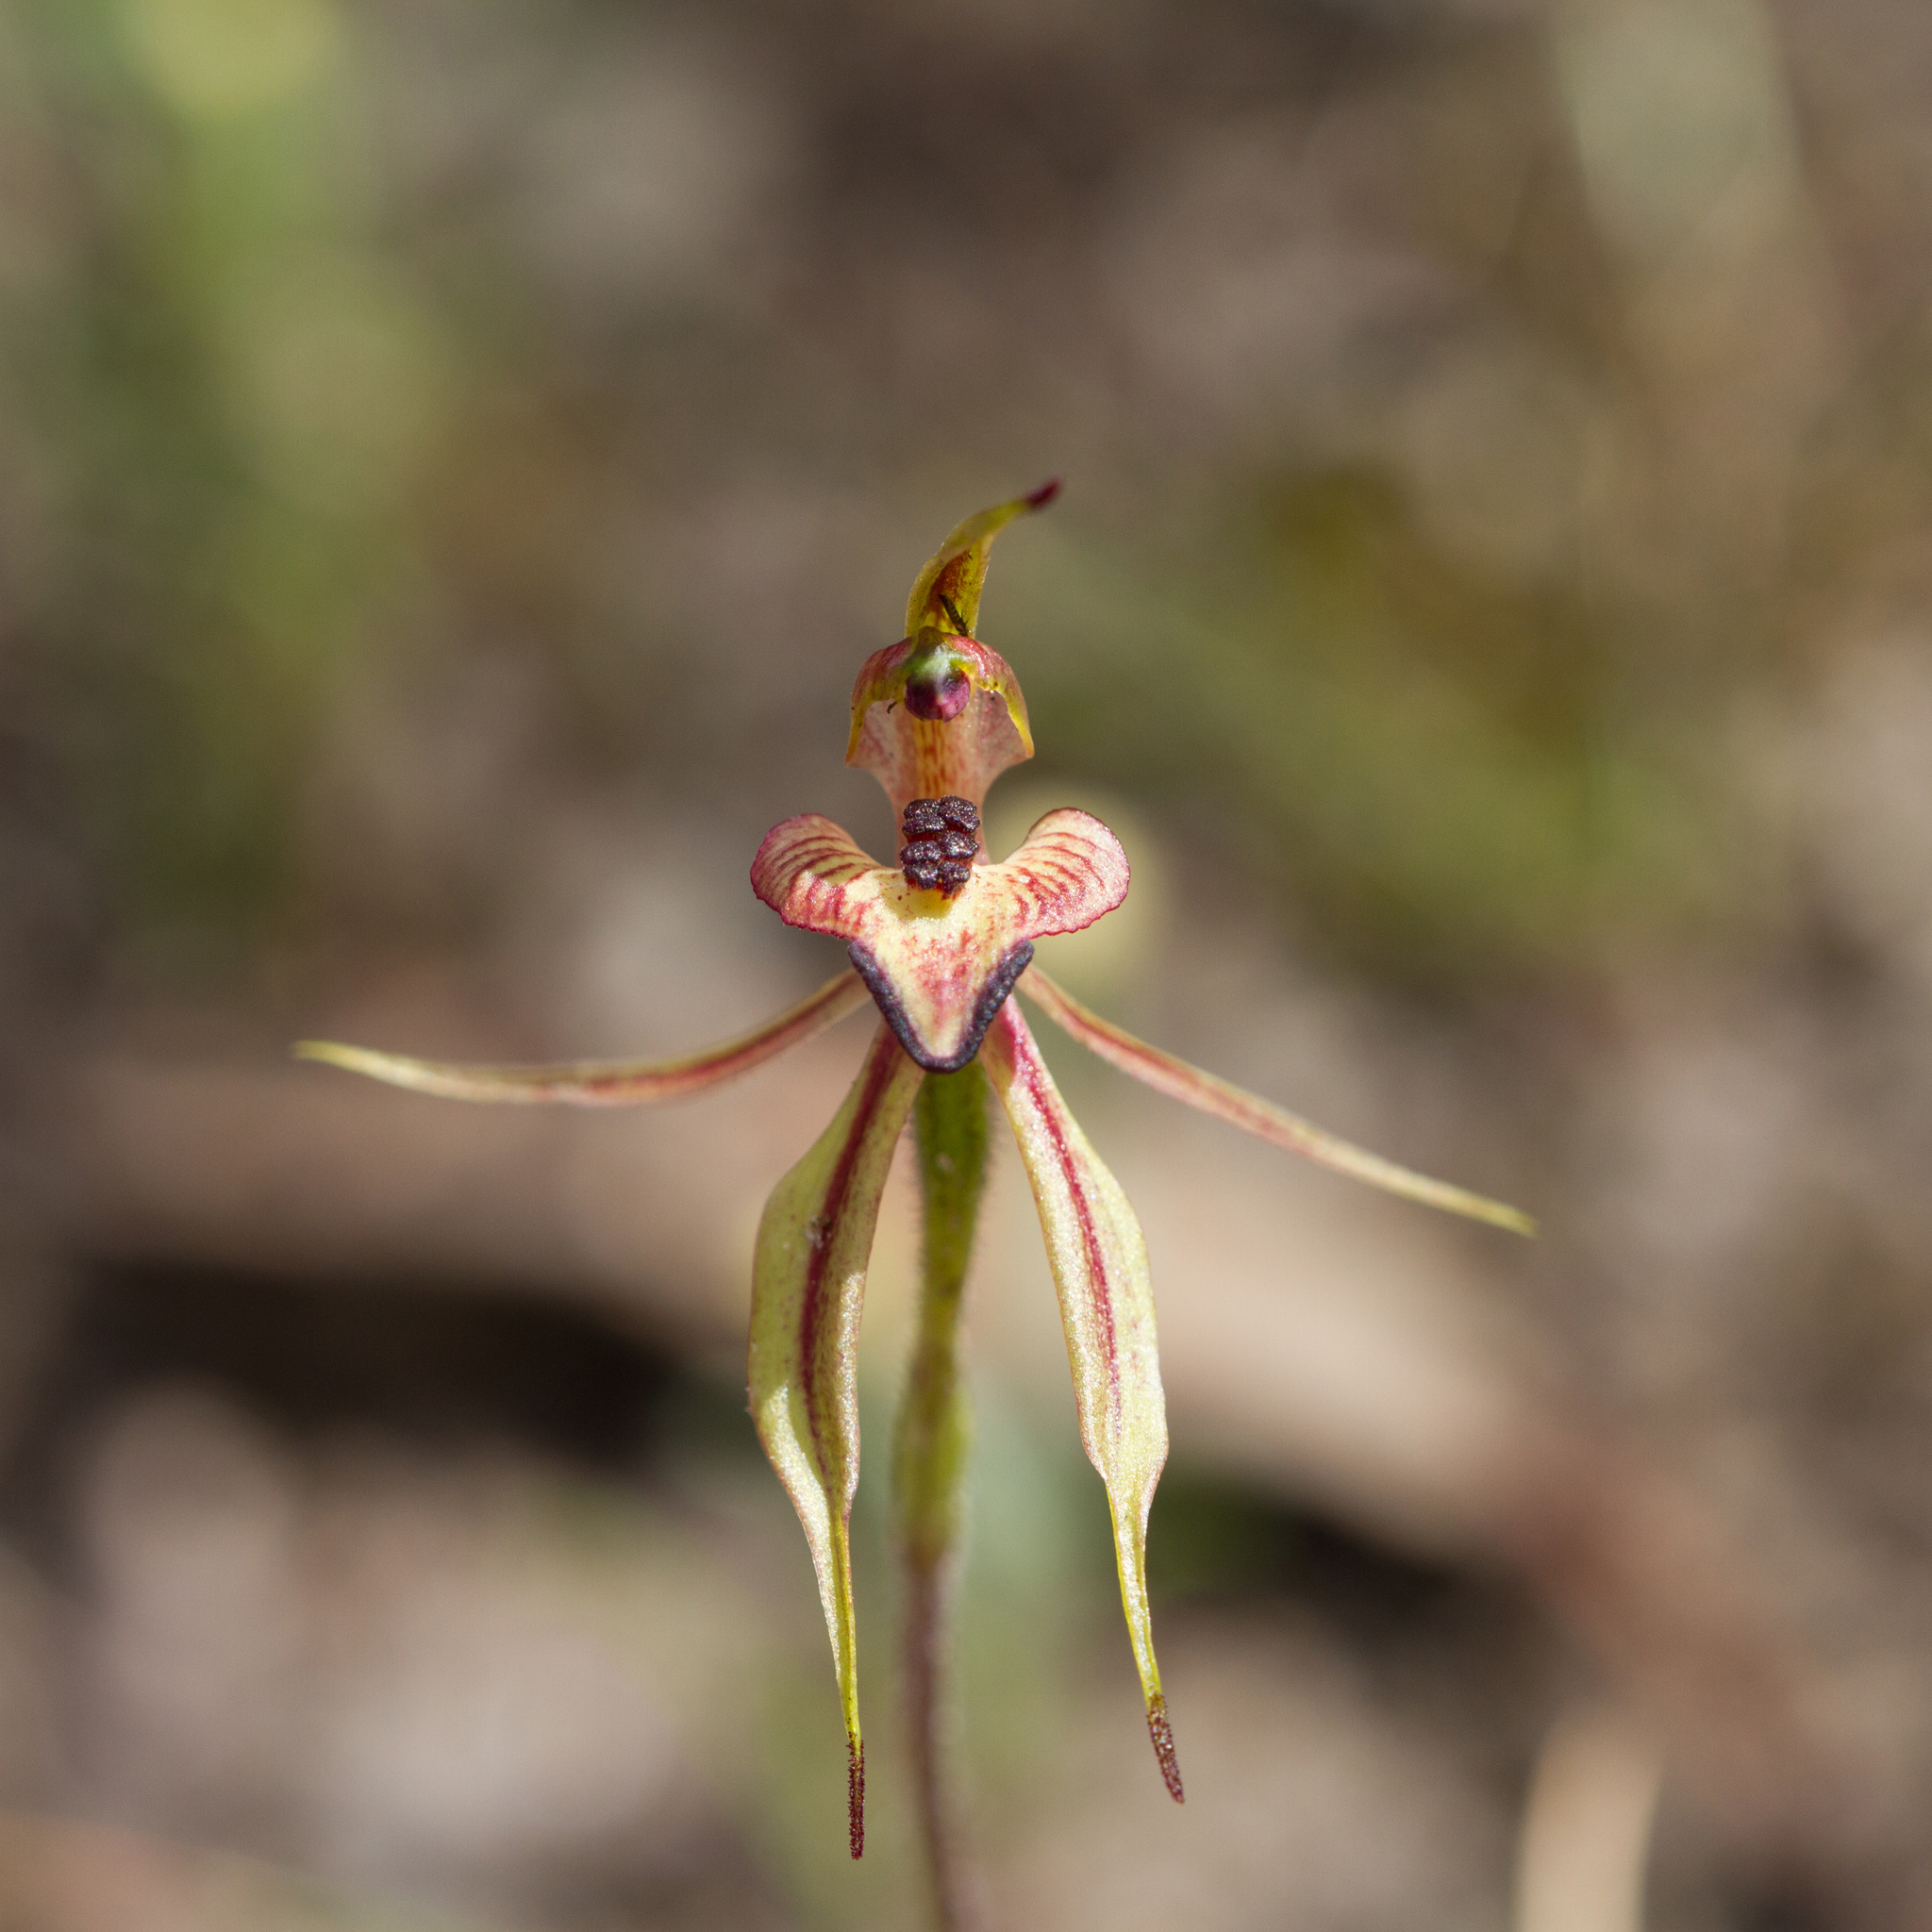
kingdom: Plantae
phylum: Tracheophyta
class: Liliopsida
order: Asparagales
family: Orchidaceae
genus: Caladenia
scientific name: Caladenia cardiochila
